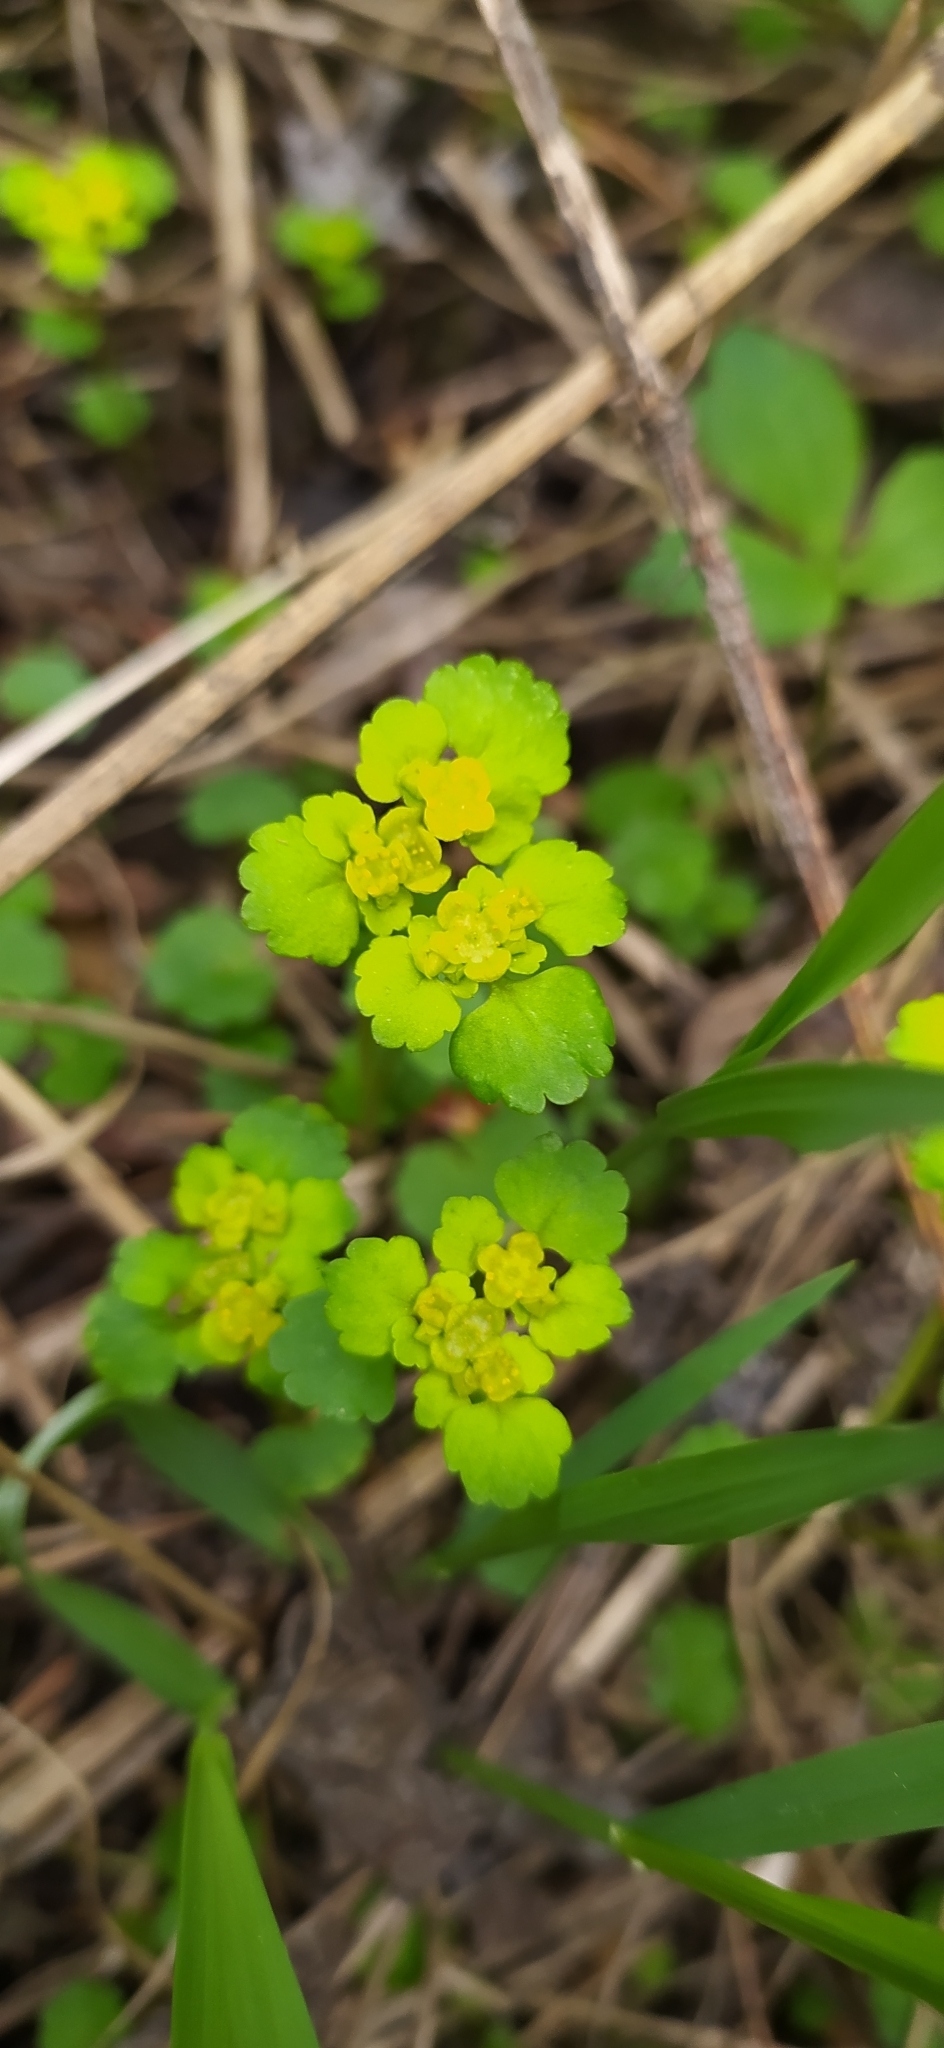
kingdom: Plantae
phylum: Tracheophyta
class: Magnoliopsida
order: Saxifragales
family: Saxifragaceae
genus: Chrysosplenium
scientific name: Chrysosplenium alternifolium
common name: Alternate-leaved golden-saxifrage
